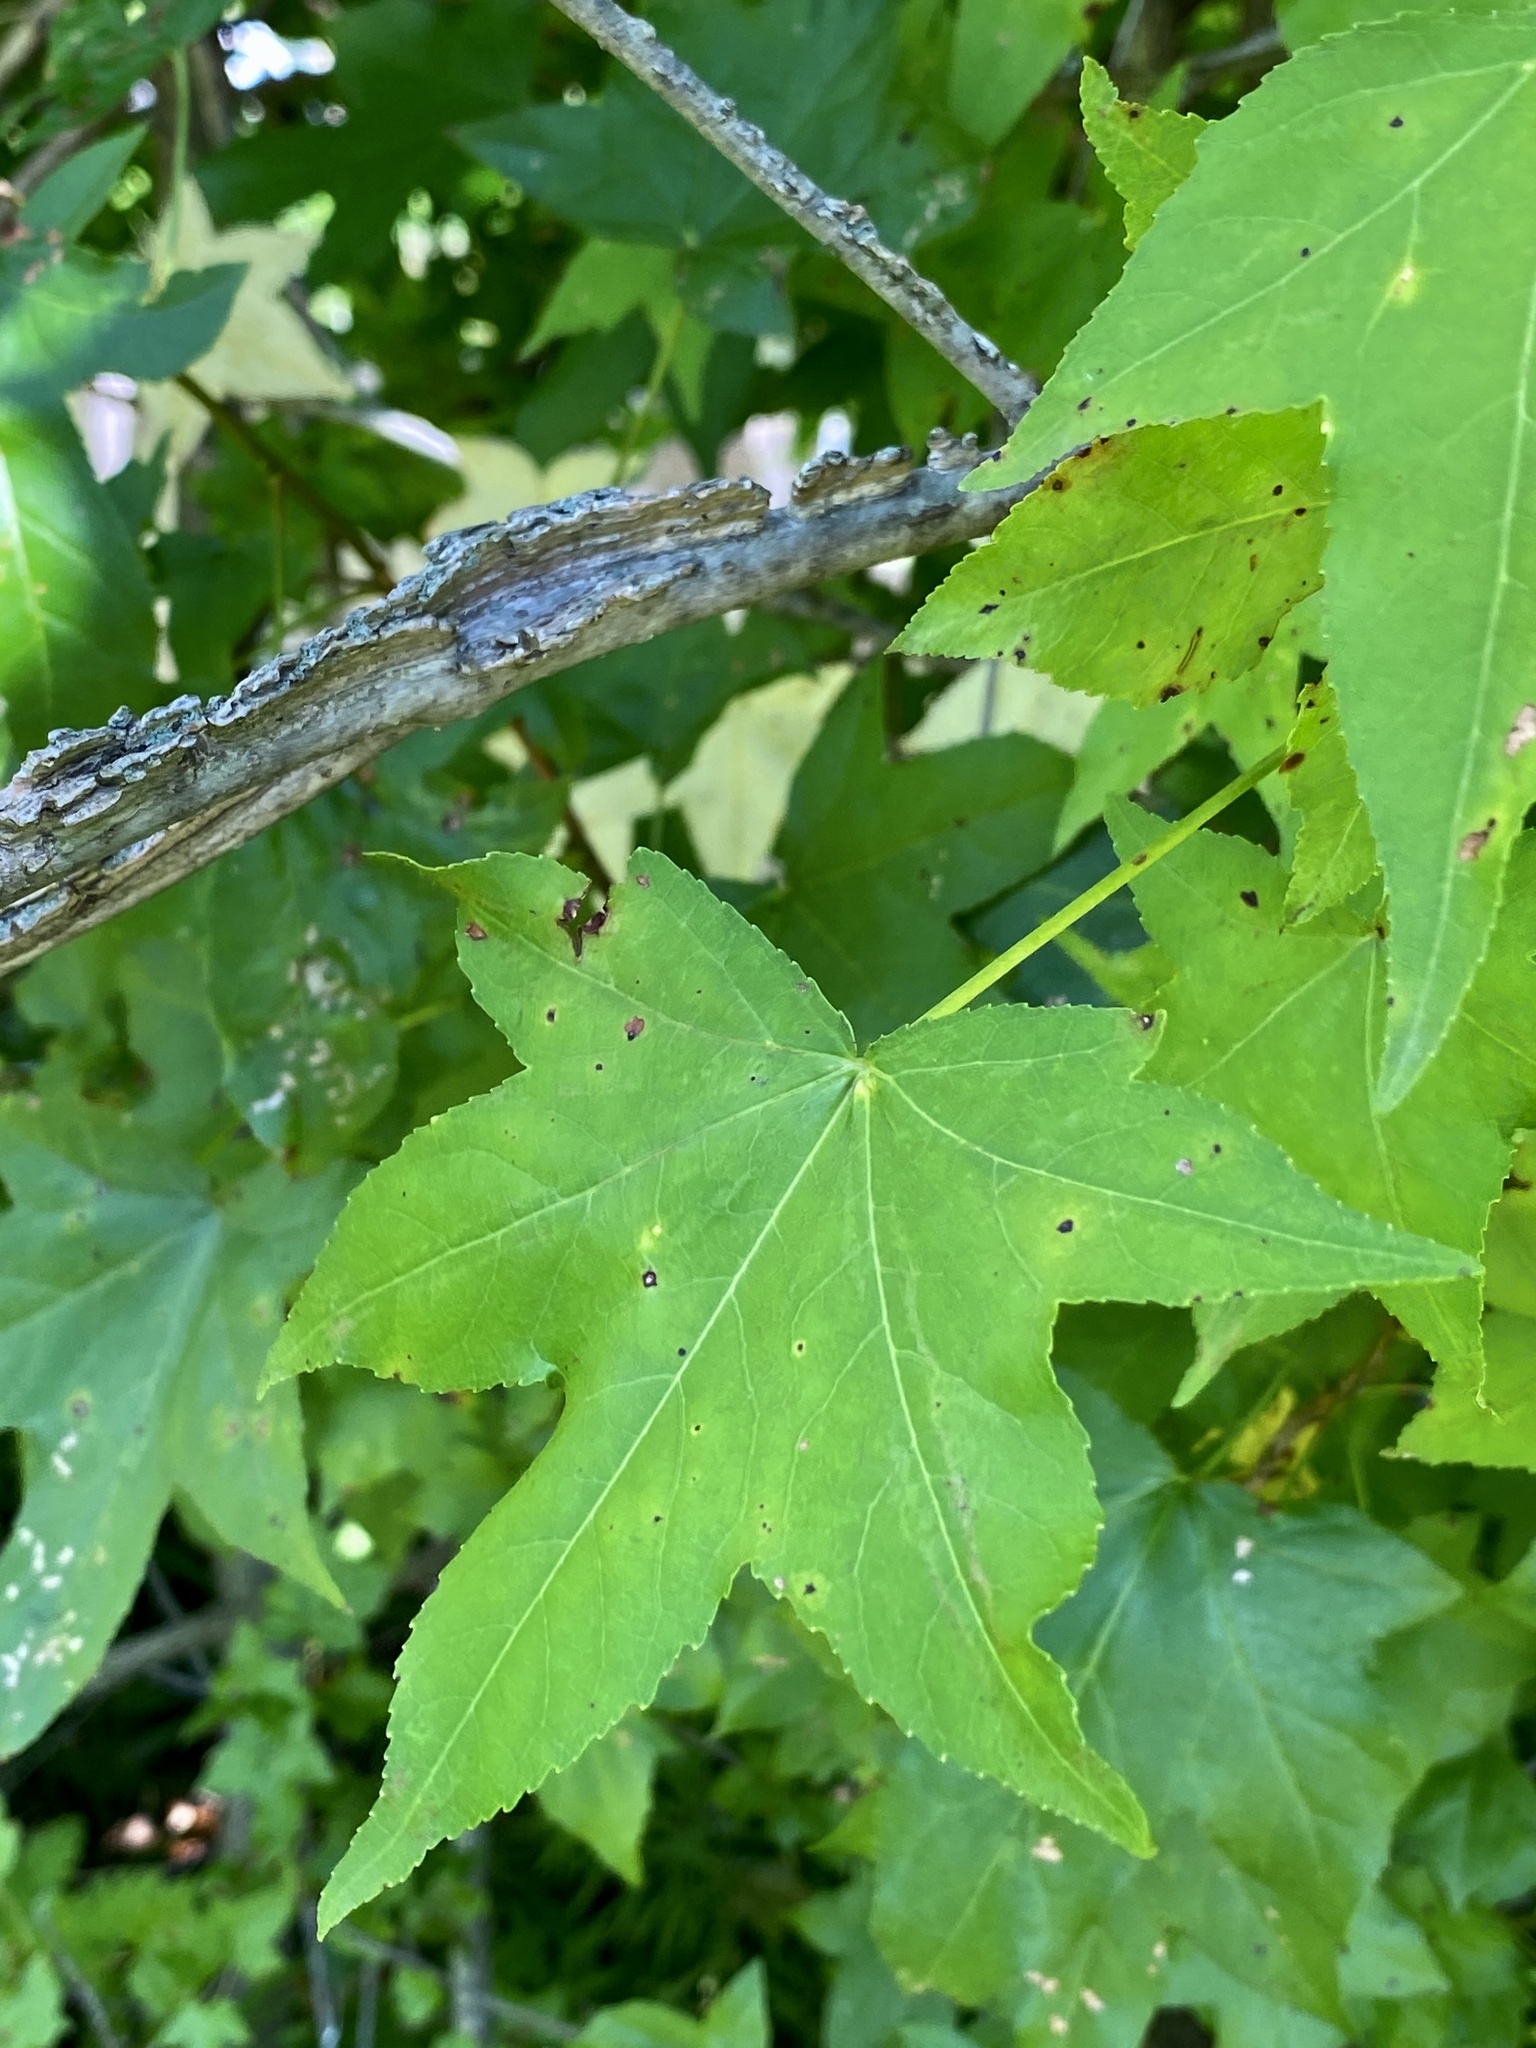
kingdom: Plantae
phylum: Tracheophyta
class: Magnoliopsida
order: Saxifragales
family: Altingiaceae
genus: Liquidambar
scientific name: Liquidambar styraciflua
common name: Sweet gum
